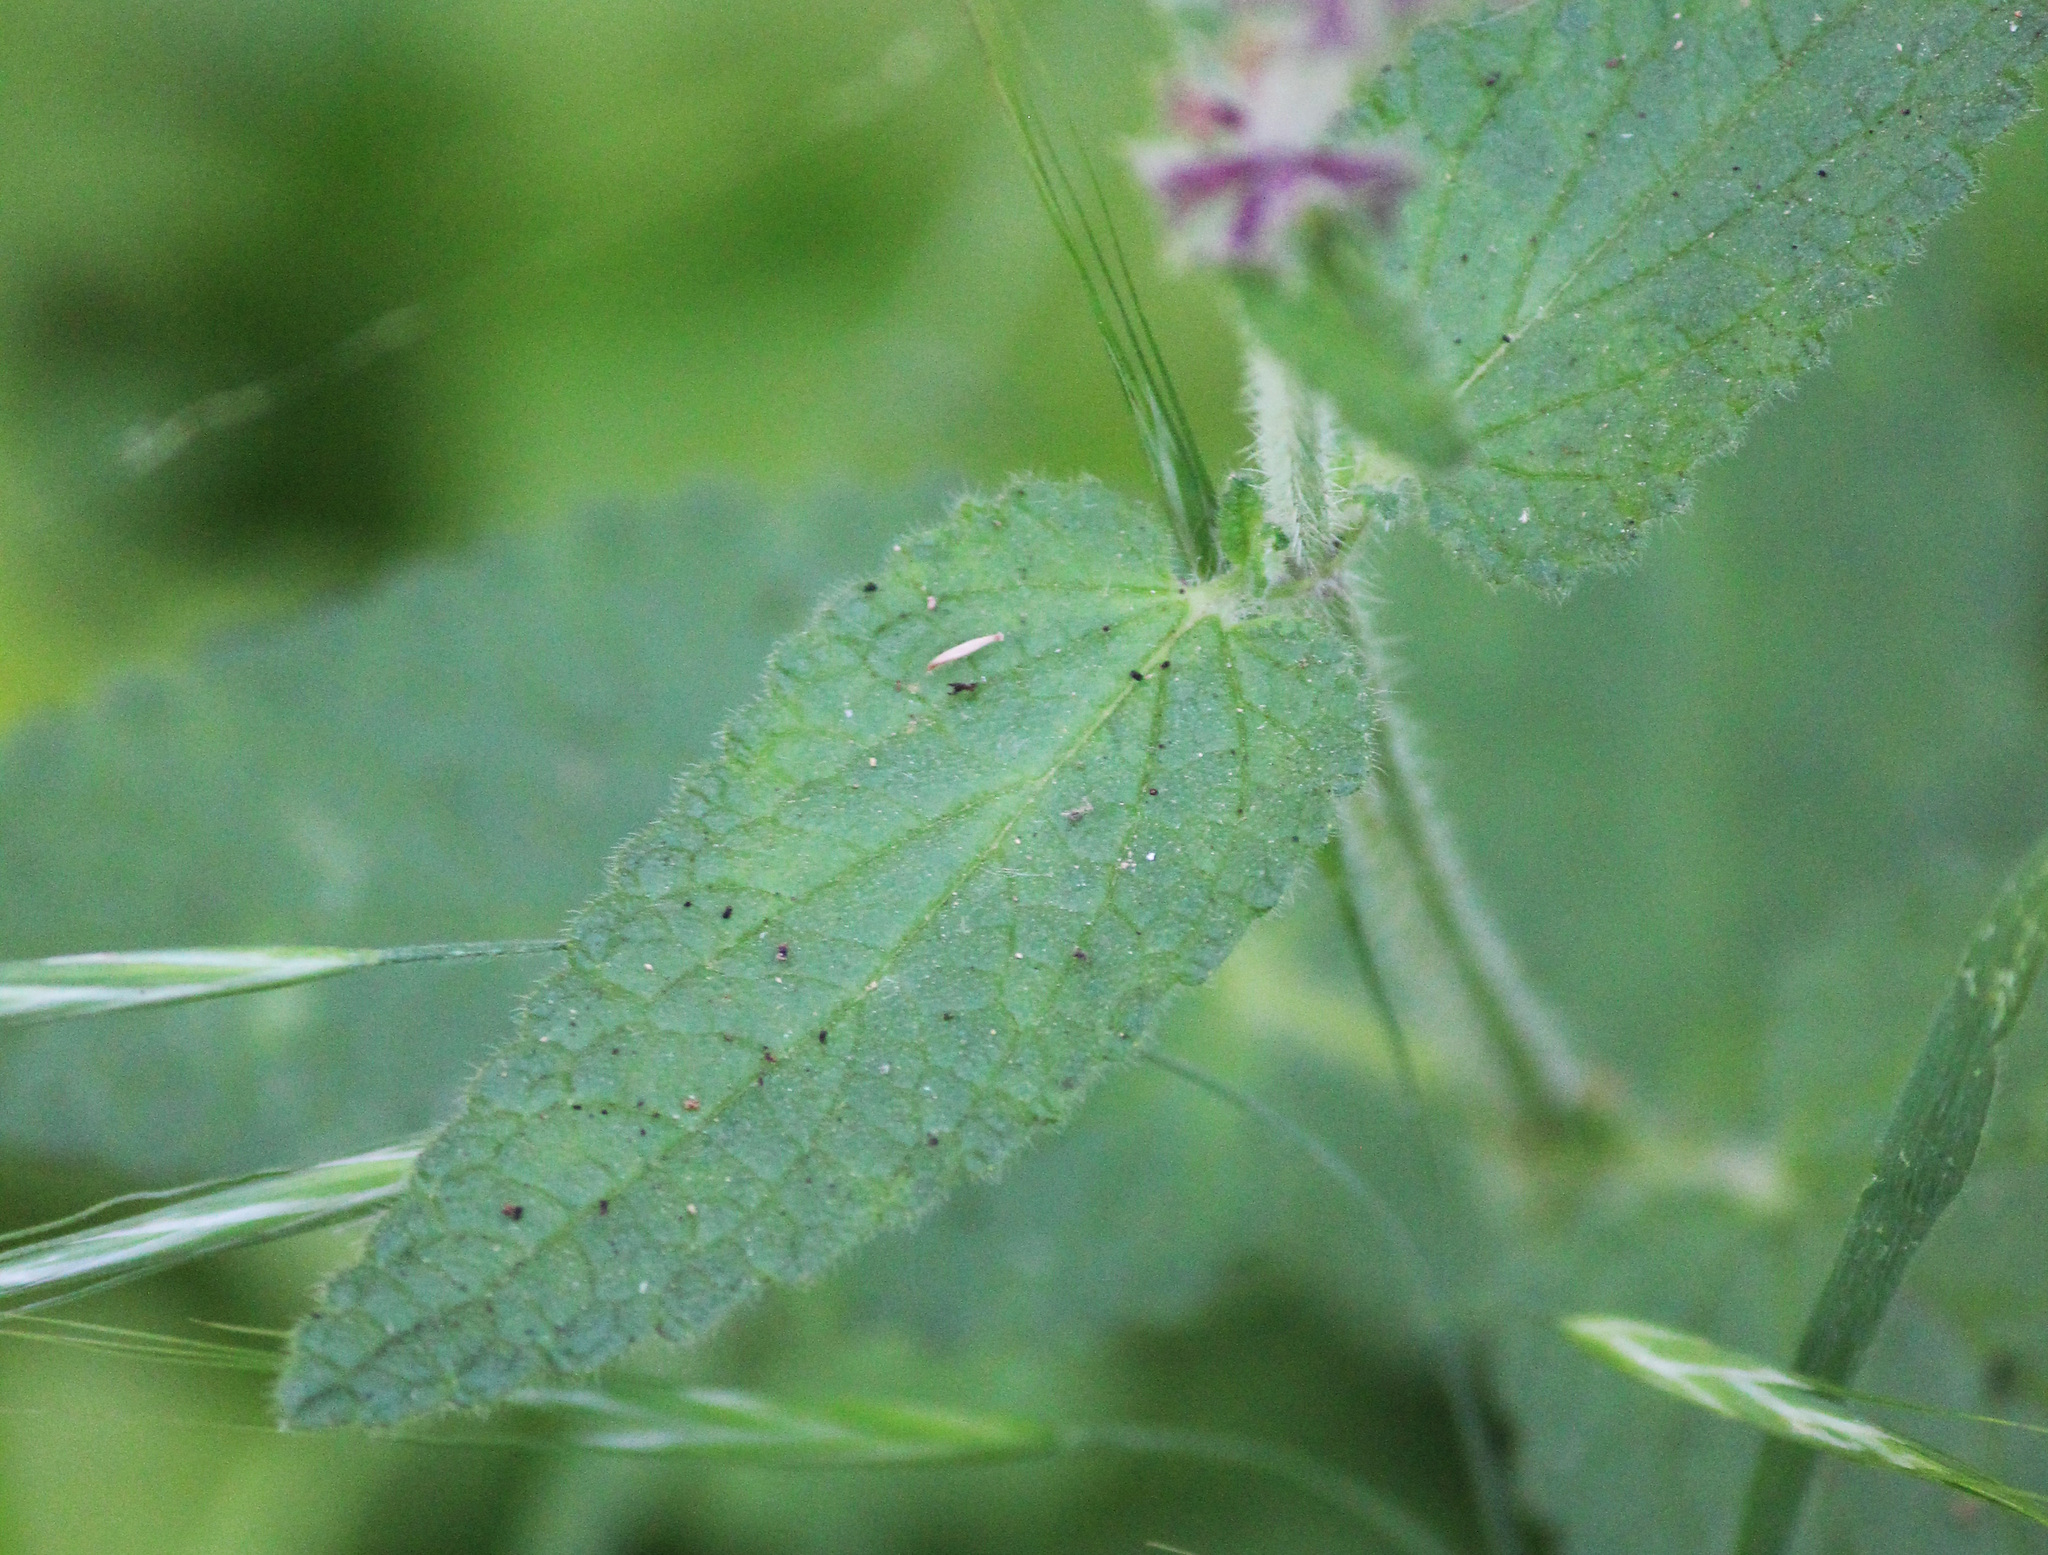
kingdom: Plantae
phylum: Tracheophyta
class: Magnoliopsida
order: Lamiales
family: Lamiaceae
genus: Stachys
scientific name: Stachys bullata
